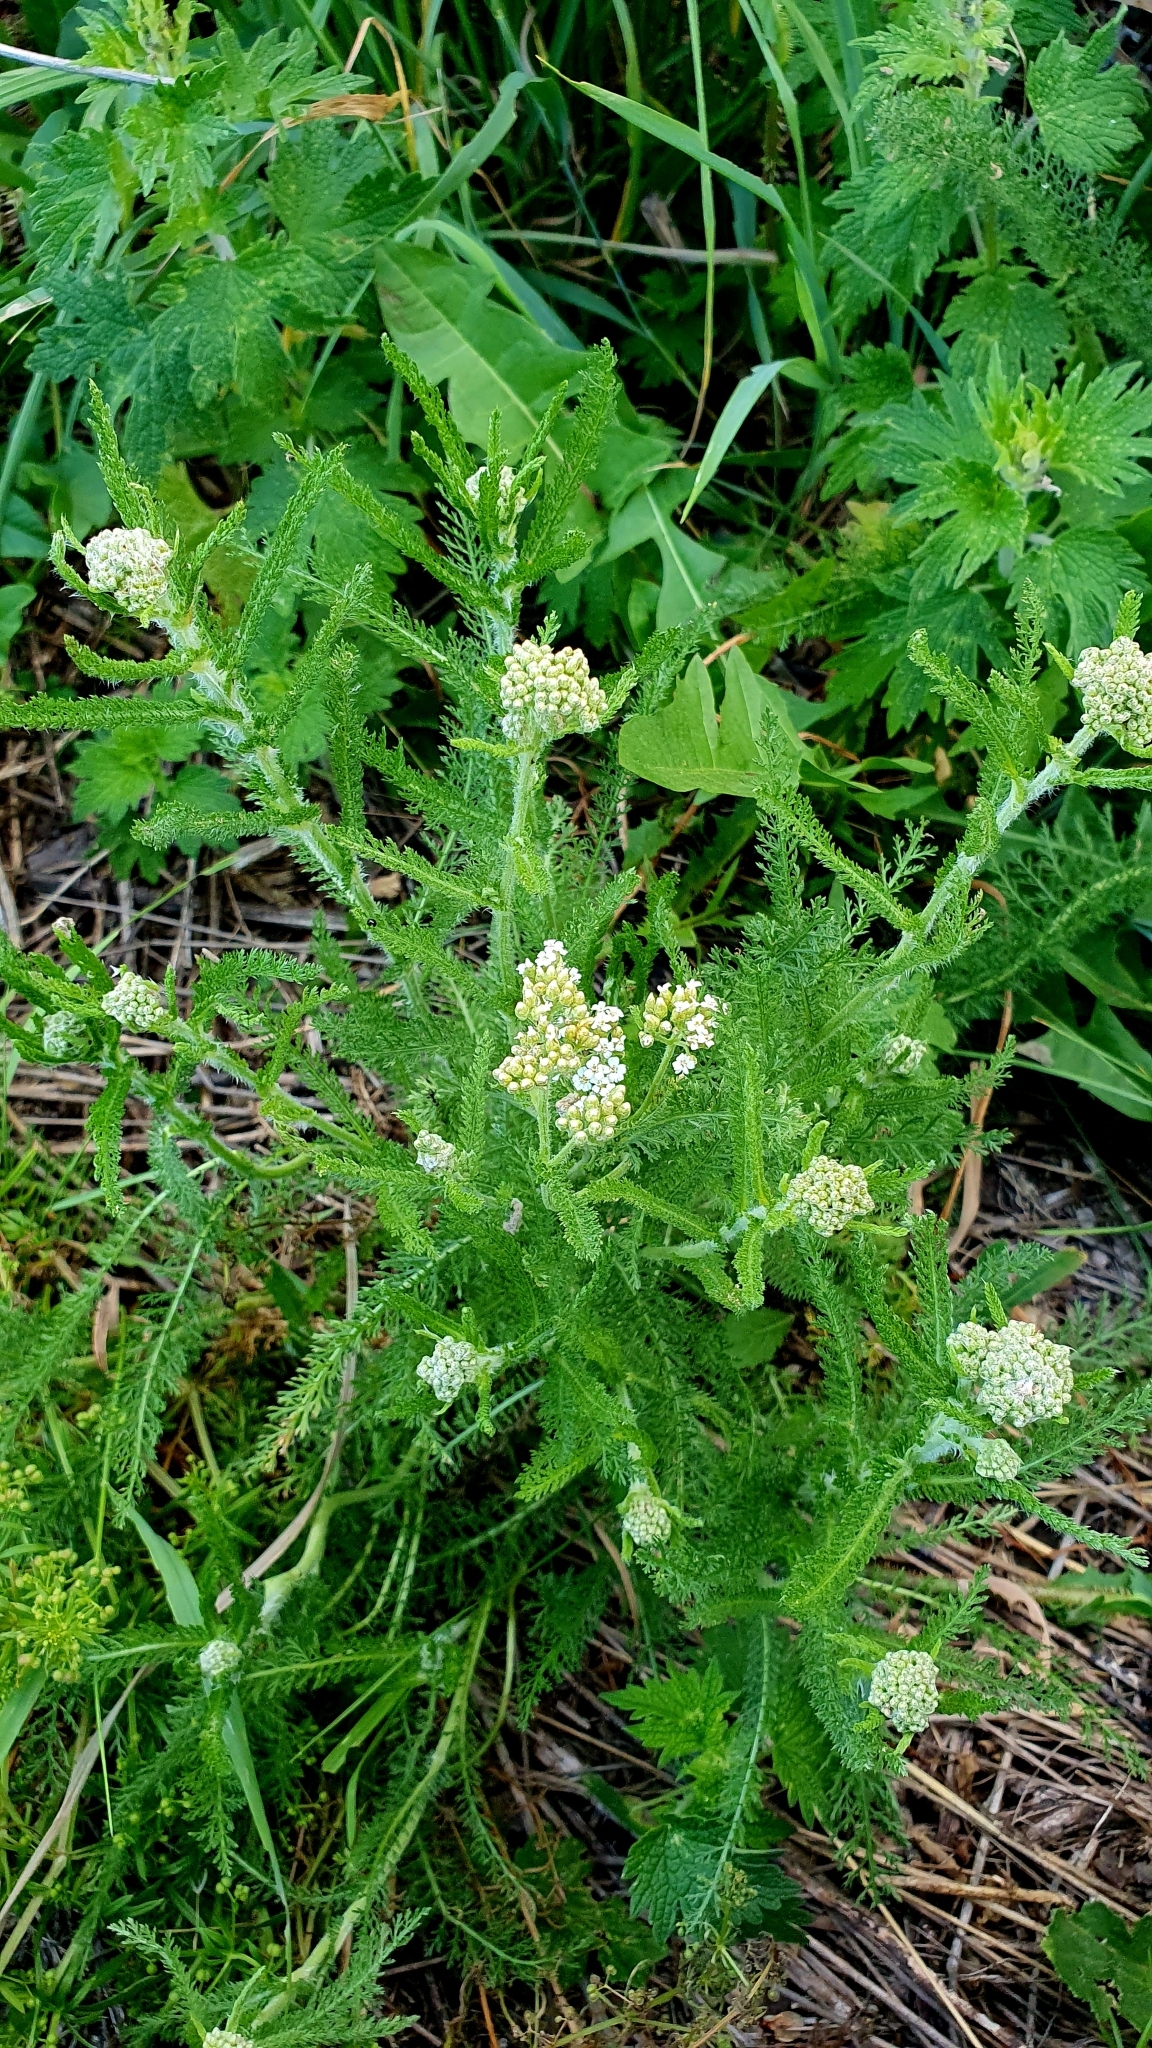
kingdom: Plantae
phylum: Tracheophyta
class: Magnoliopsida
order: Asterales
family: Asteraceae
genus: Achillea
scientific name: Achillea millefolium
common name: Yarrow
